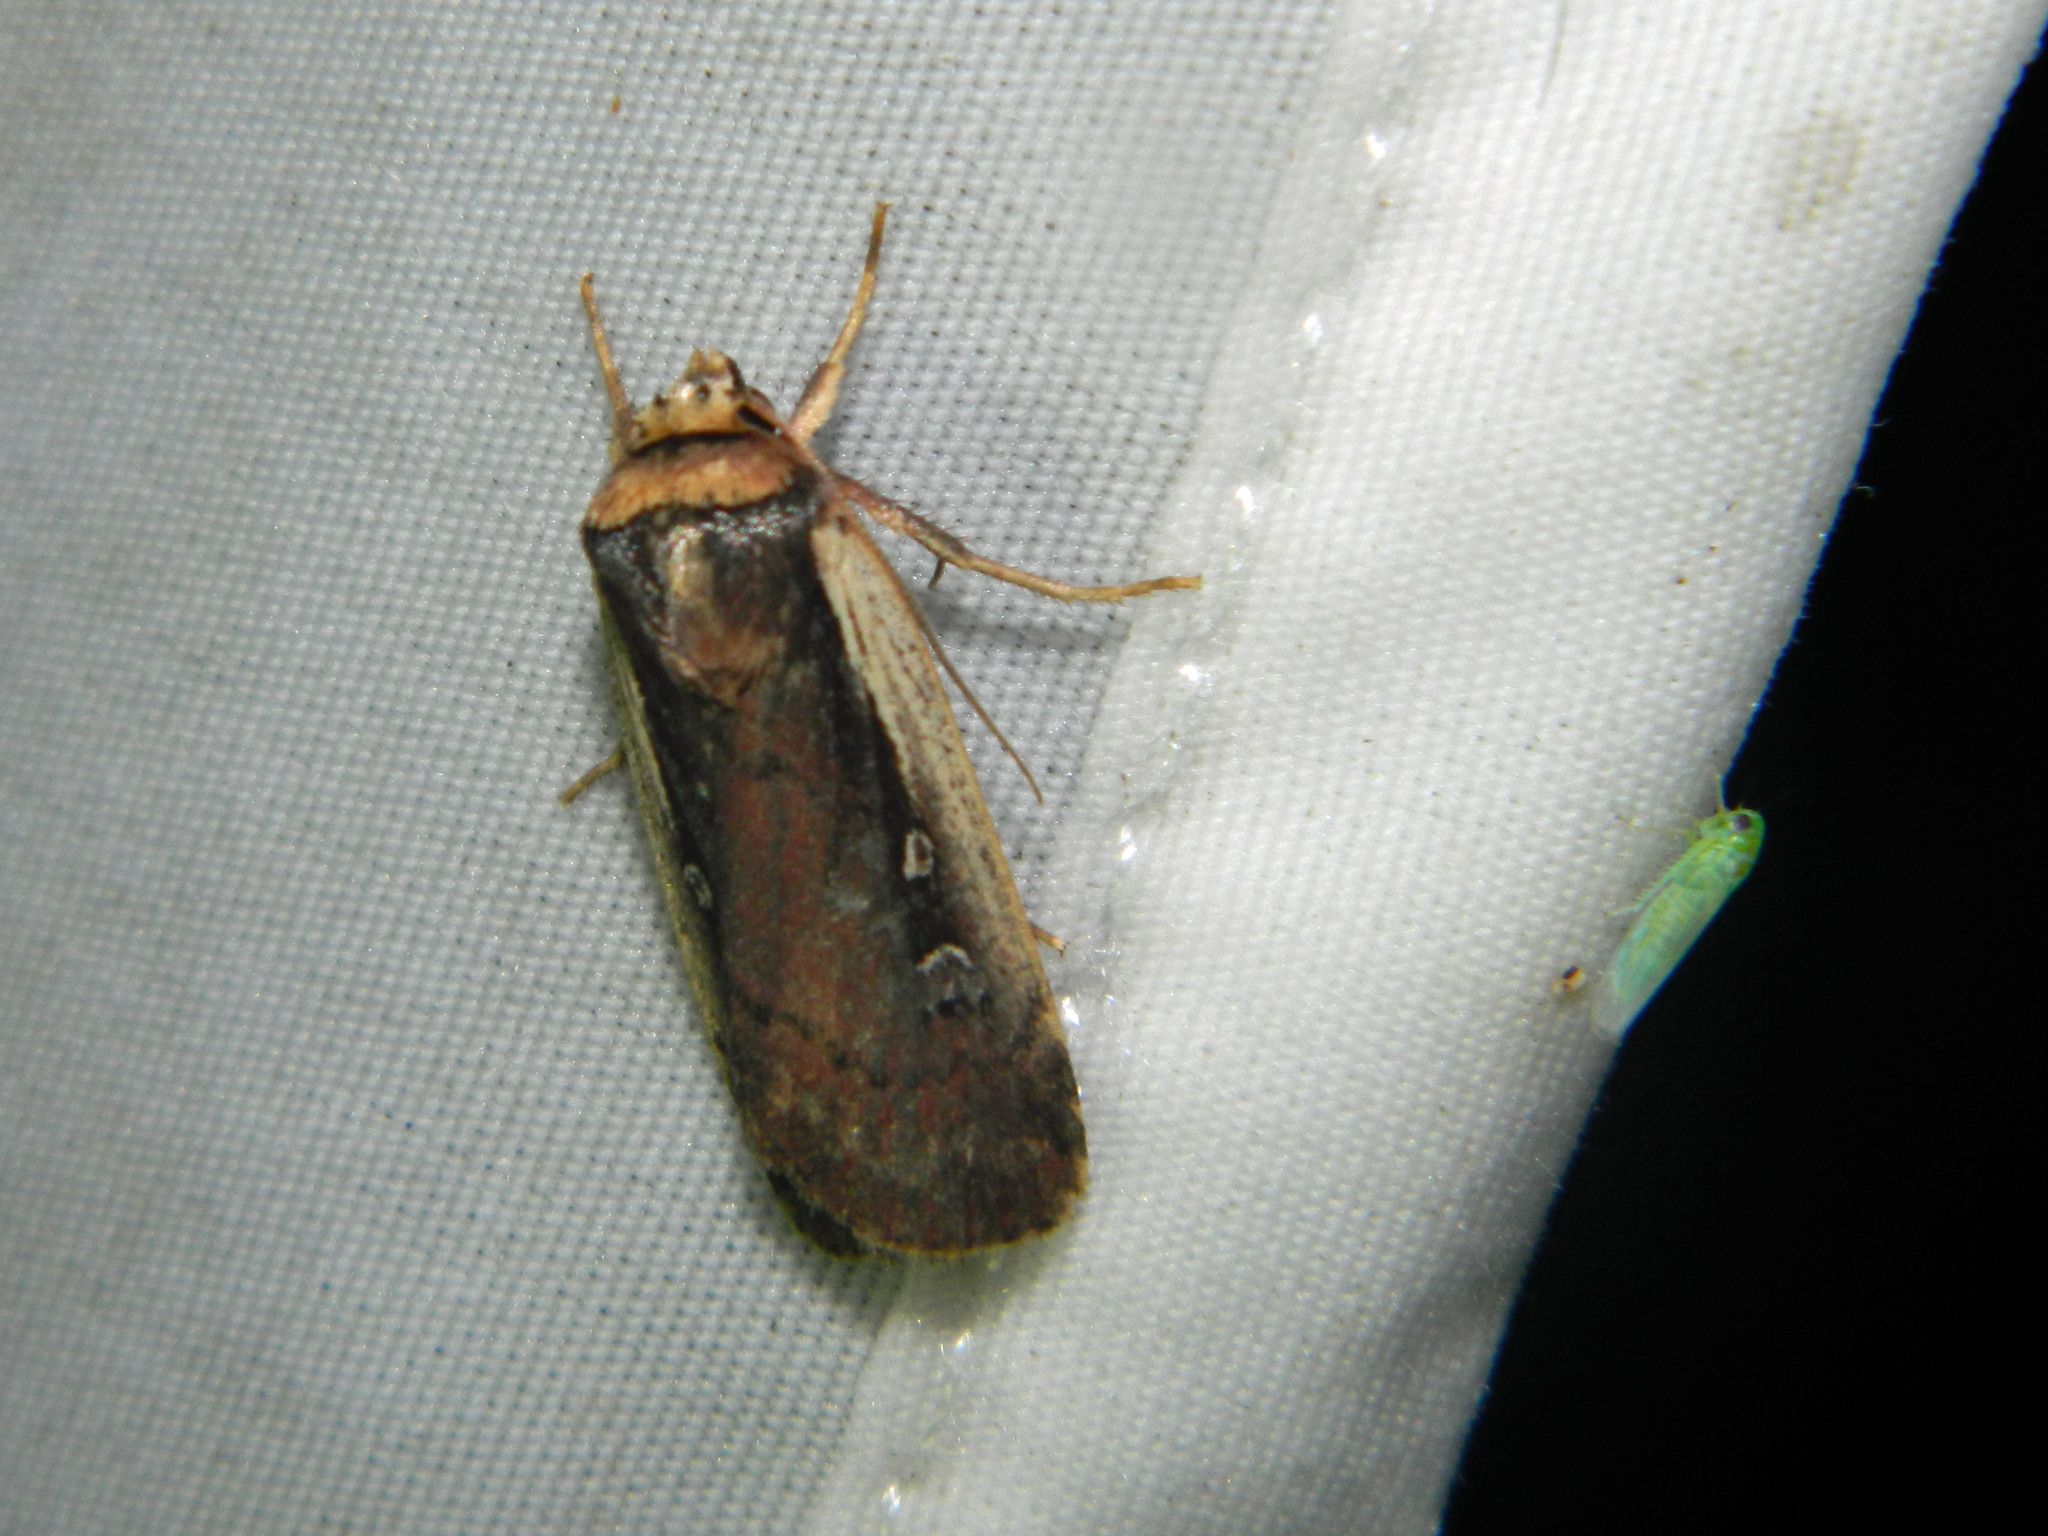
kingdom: Animalia
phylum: Arthropoda
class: Insecta
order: Lepidoptera
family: Noctuidae
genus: Ochropleura
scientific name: Ochropleura implecta
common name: Flame-shouldered dart
